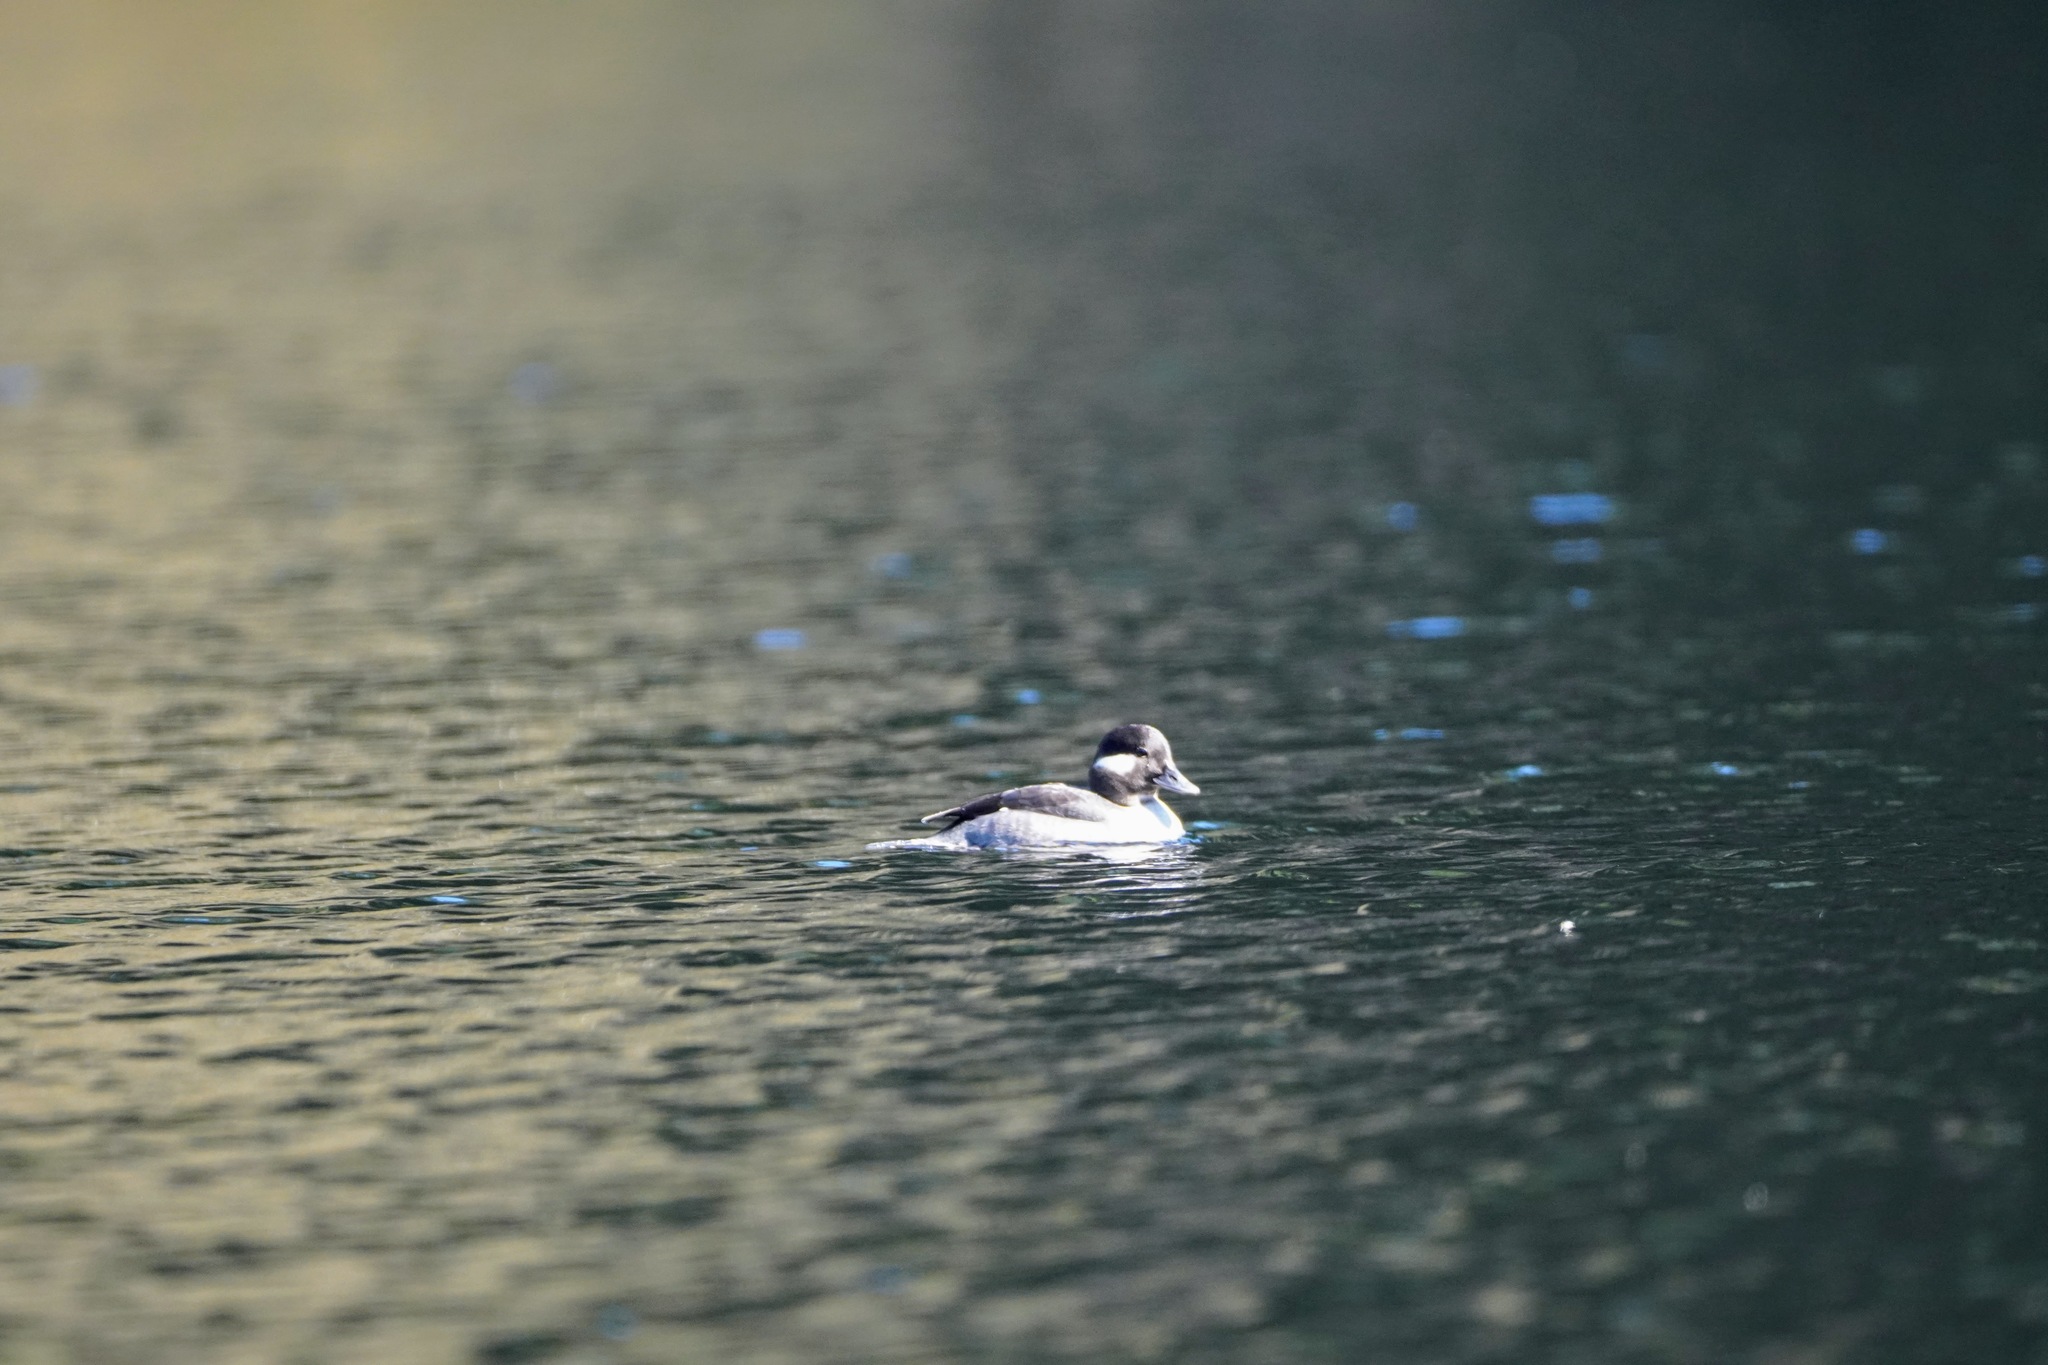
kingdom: Animalia
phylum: Chordata
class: Aves
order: Anseriformes
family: Anatidae
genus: Bucephala
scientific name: Bucephala albeola
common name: Bufflehead
